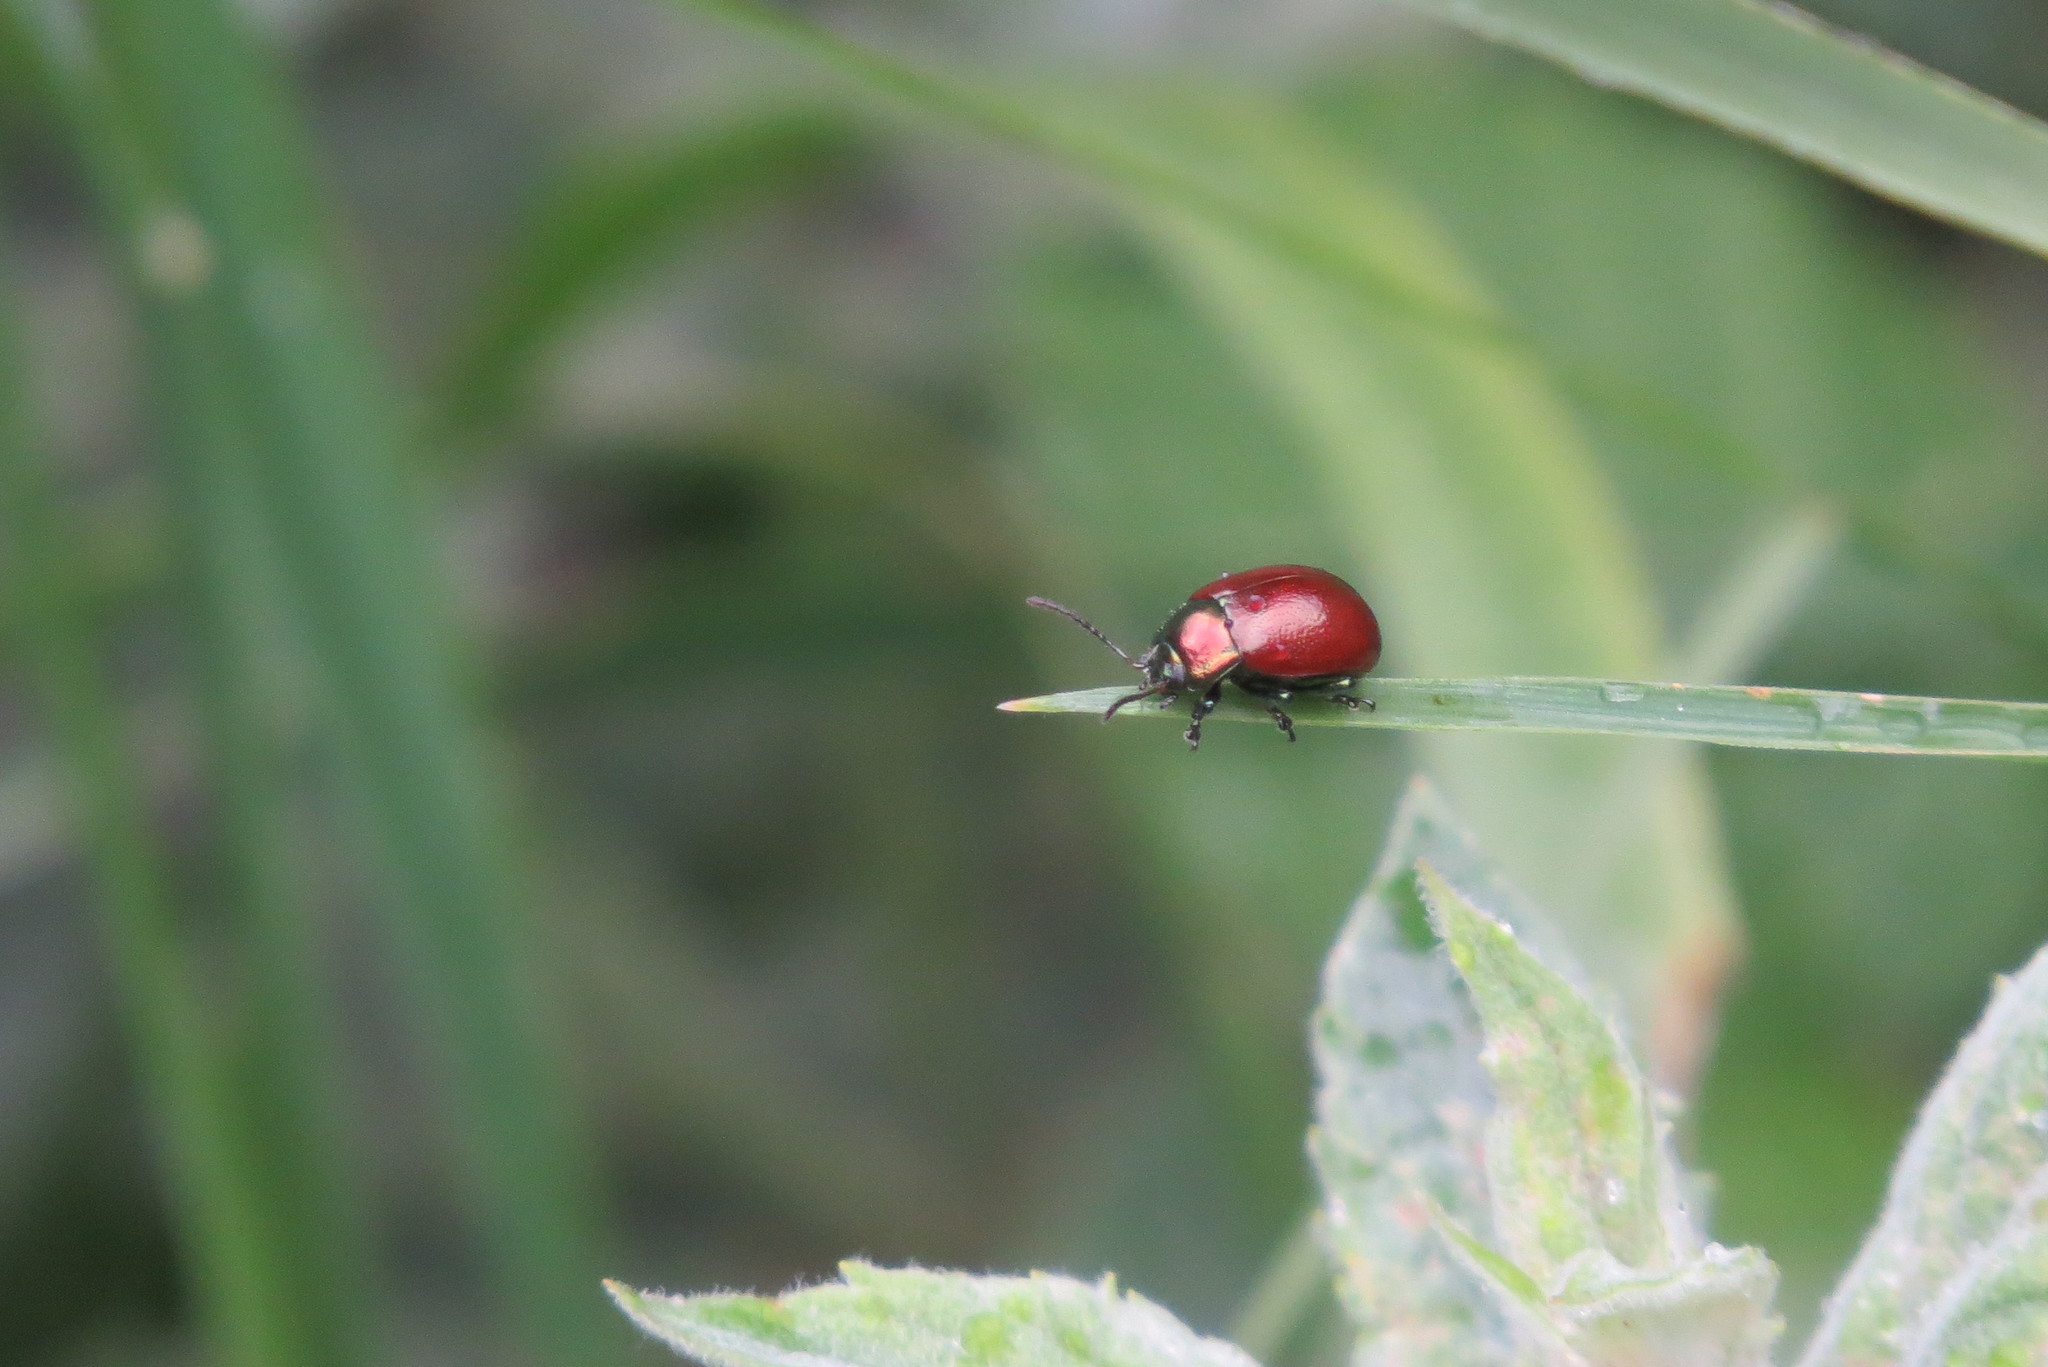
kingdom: Animalia
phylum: Arthropoda
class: Insecta
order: Coleoptera
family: Chrysomelidae
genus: Chrysomela
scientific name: Chrysomela polita
